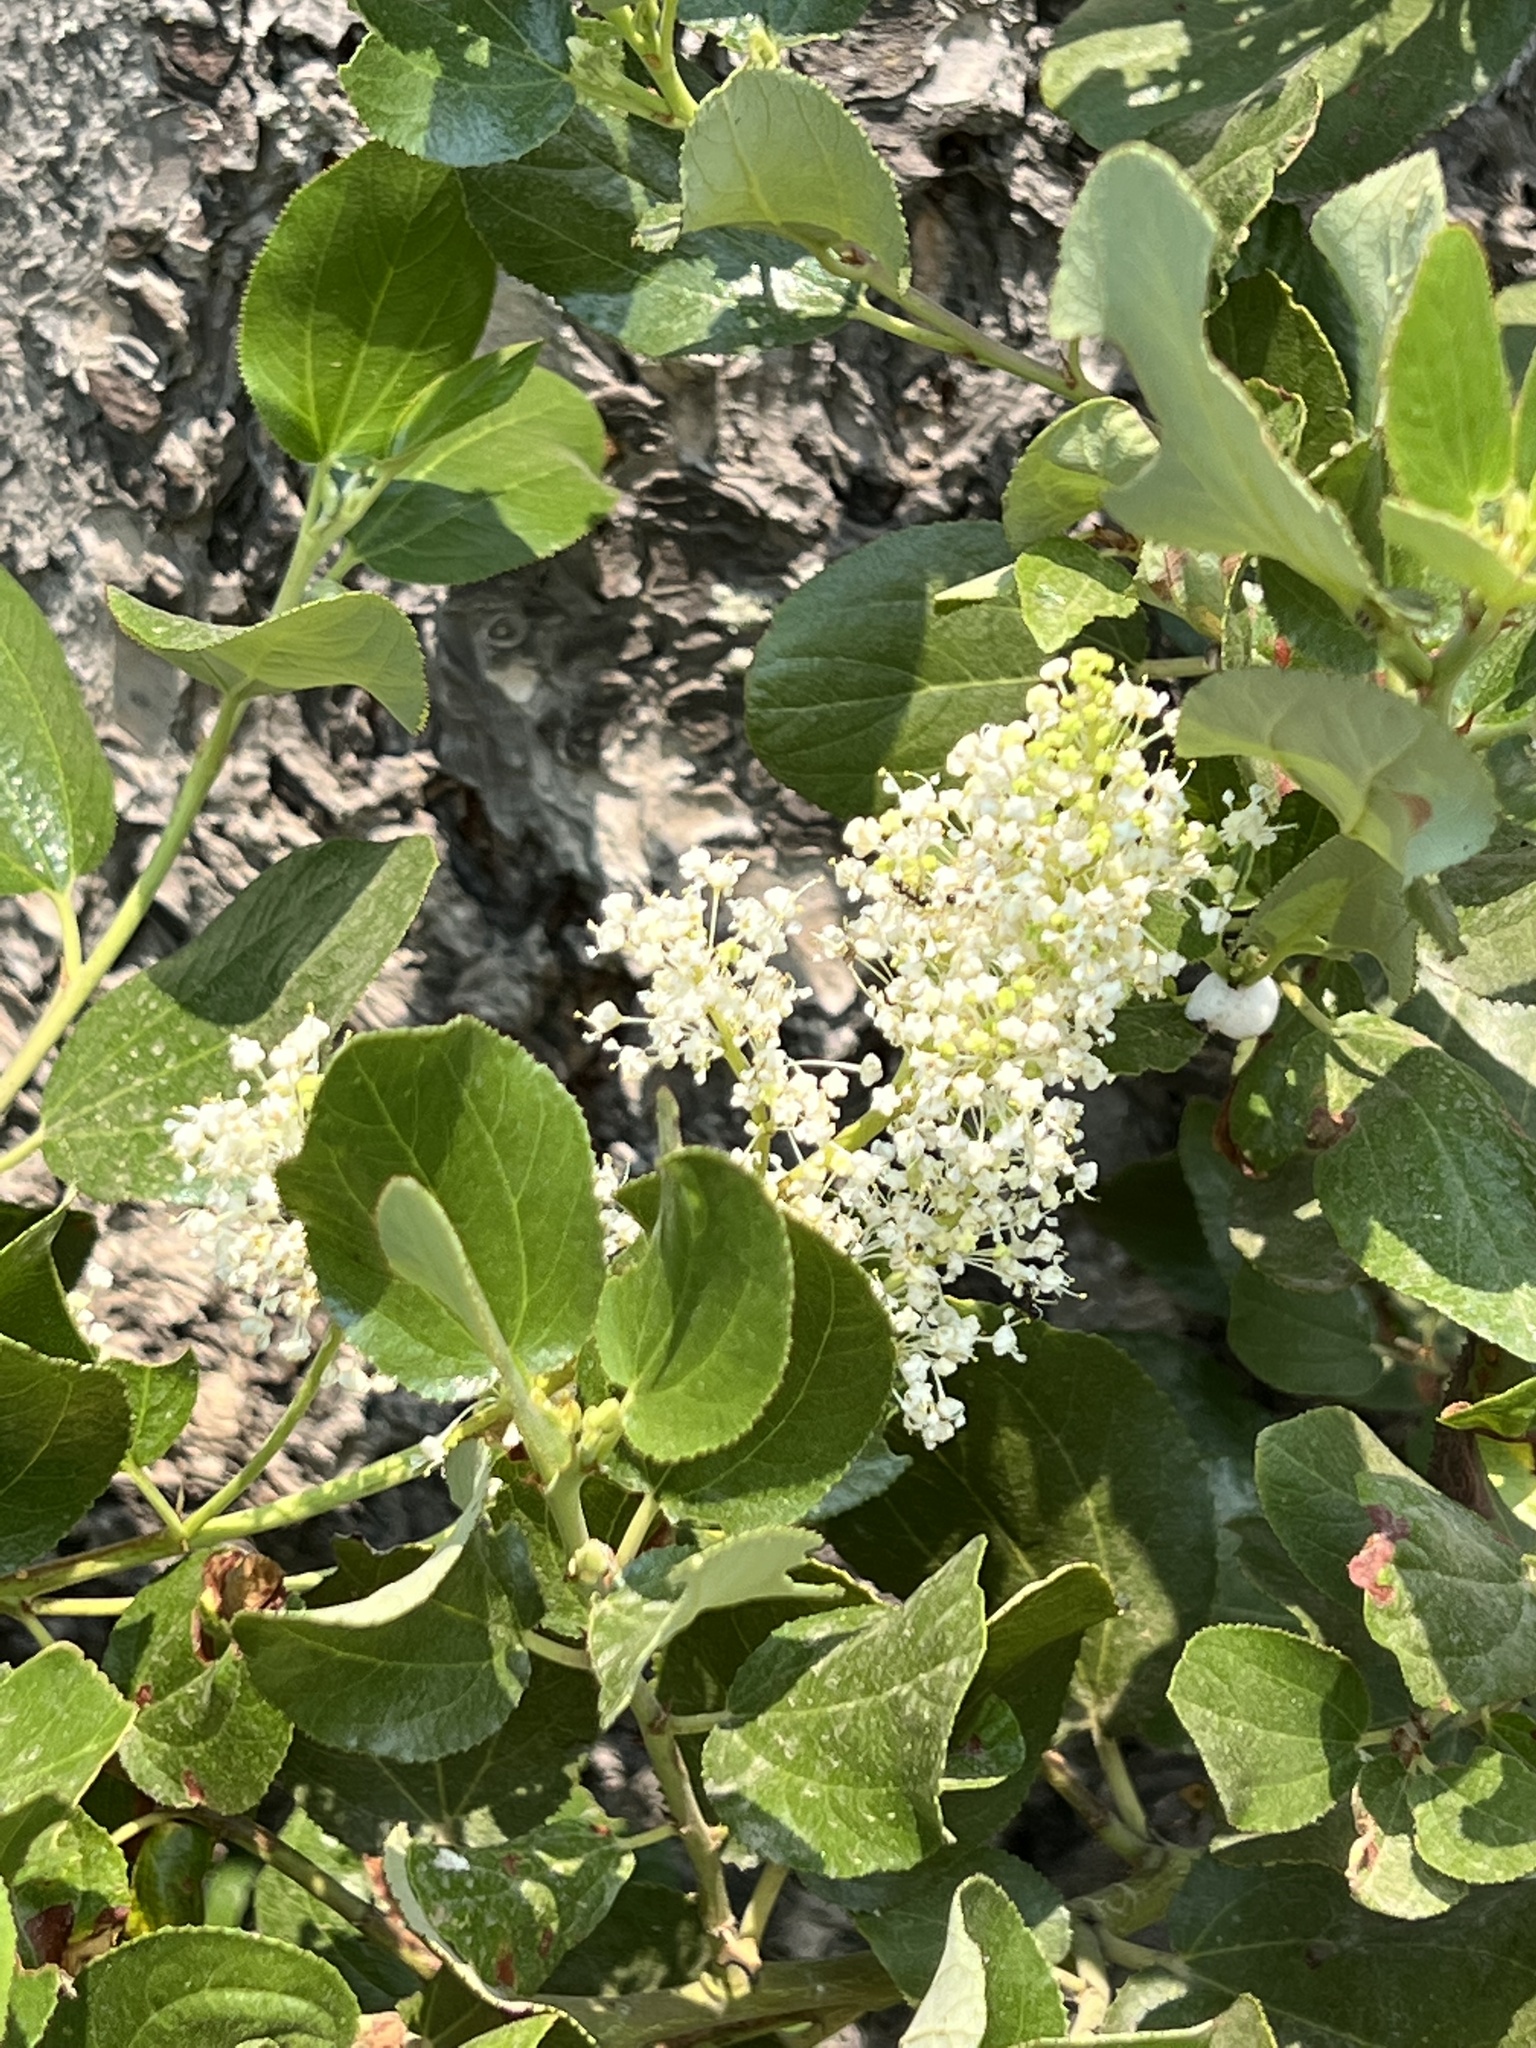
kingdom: Plantae
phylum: Tracheophyta
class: Magnoliopsida
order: Rosales
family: Rhamnaceae
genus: Ceanothus
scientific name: Ceanothus velutinus
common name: Snowbrush
